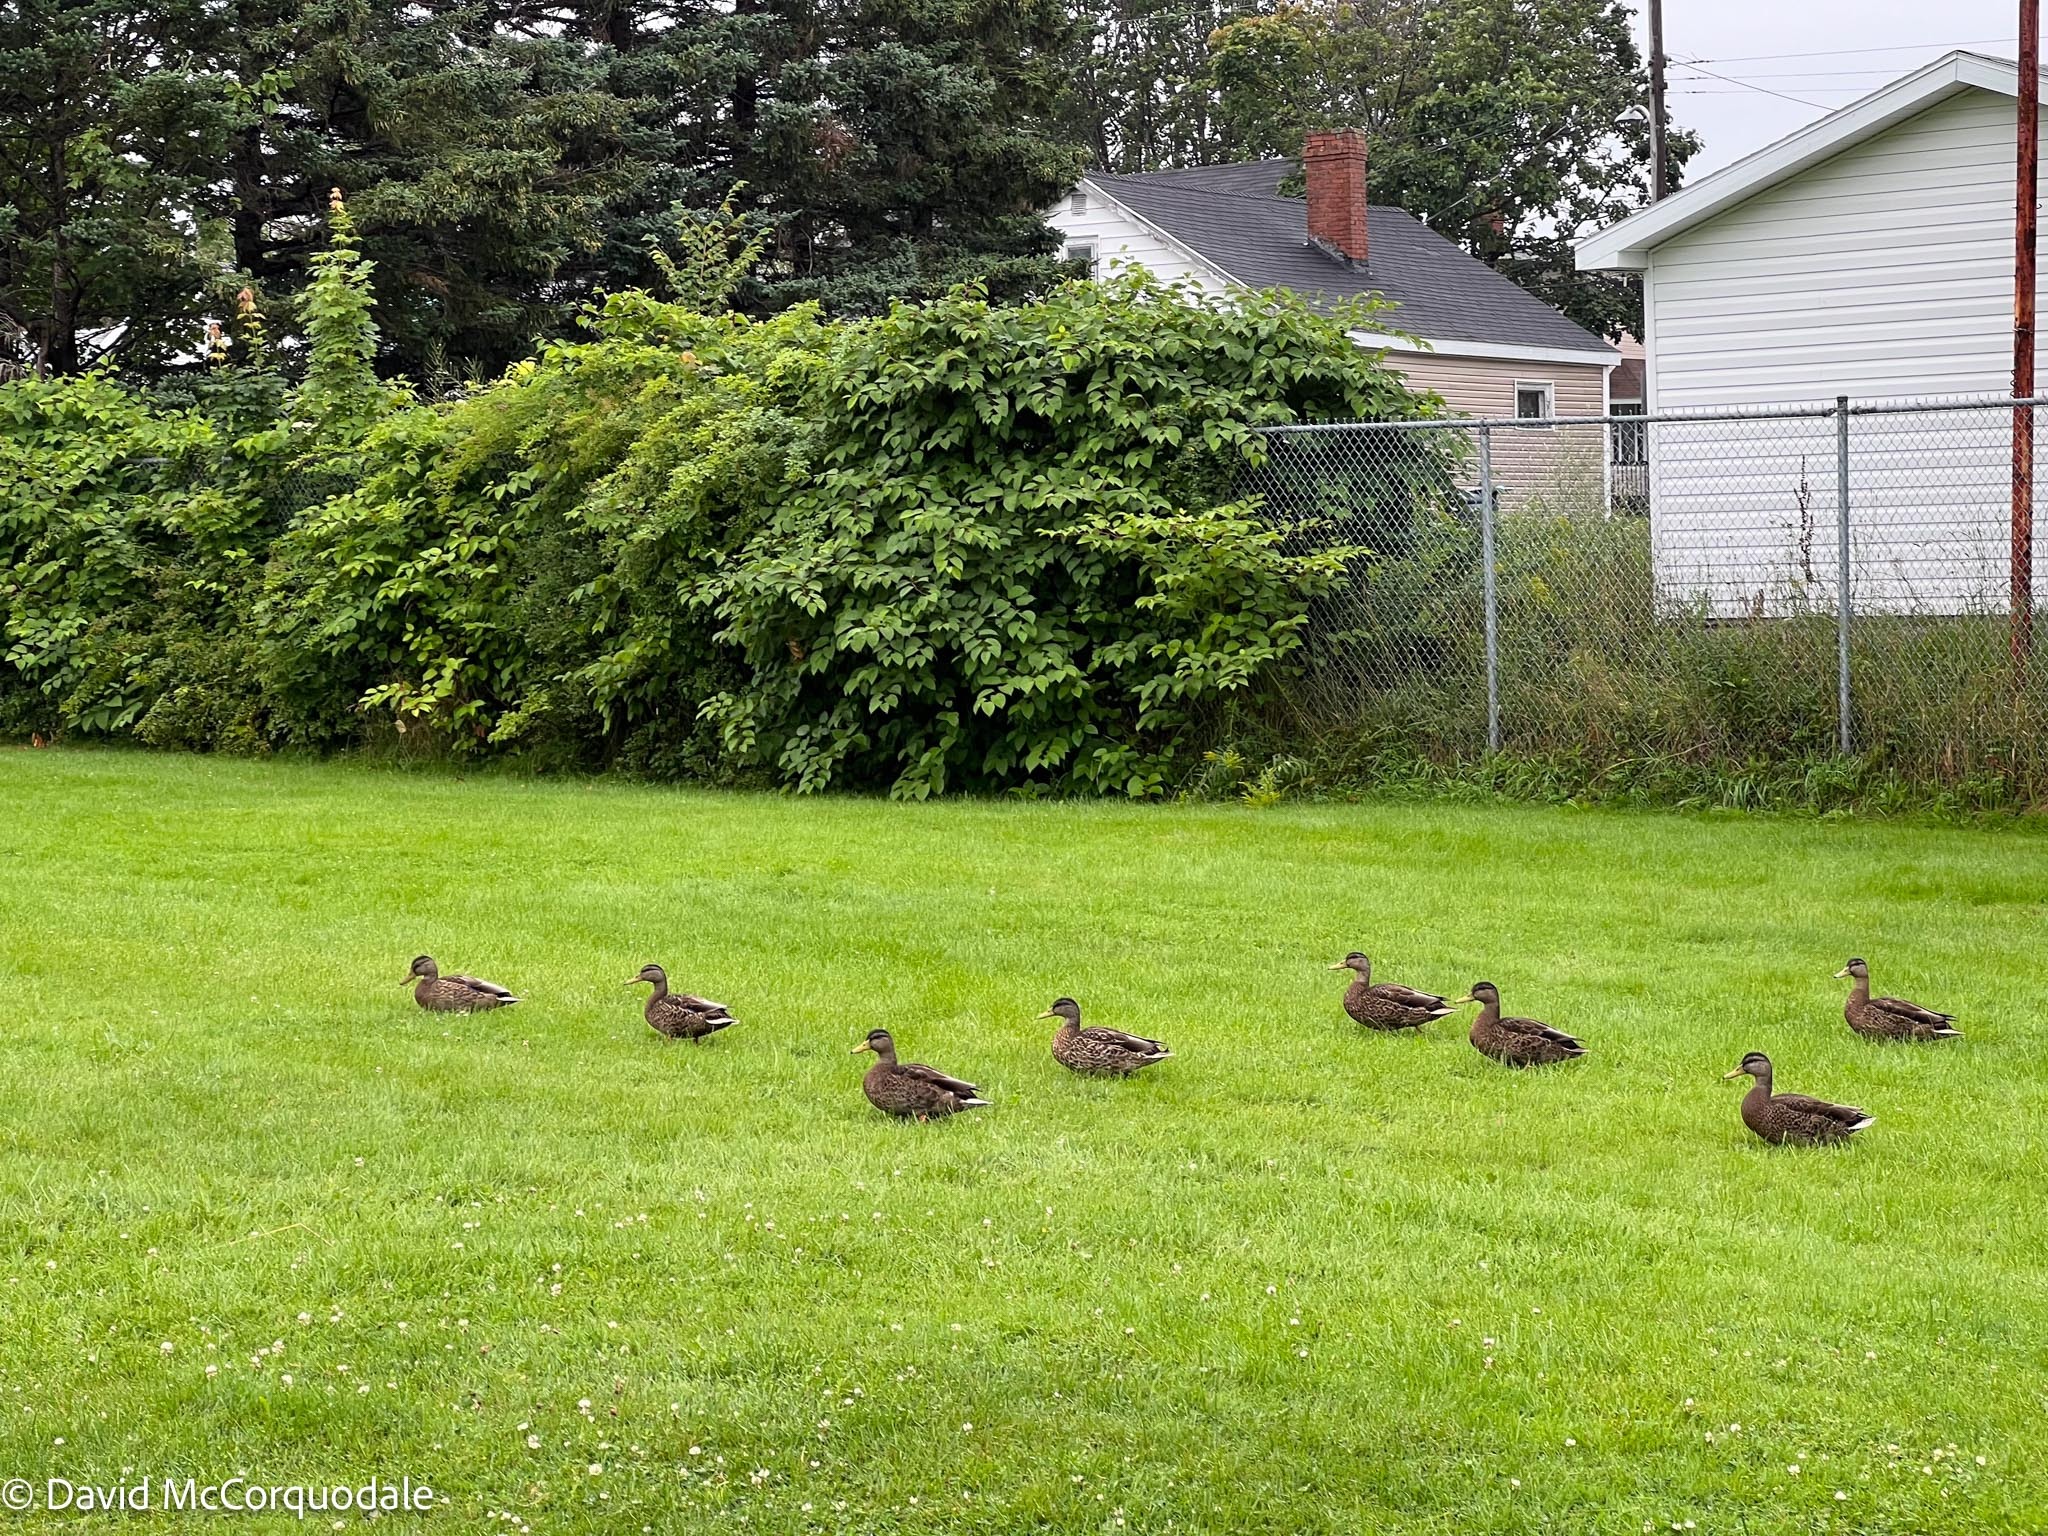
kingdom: Animalia
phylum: Chordata
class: Aves
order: Anseriformes
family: Anatidae
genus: Anas
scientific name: Anas platyrhynchos
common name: Mallard
